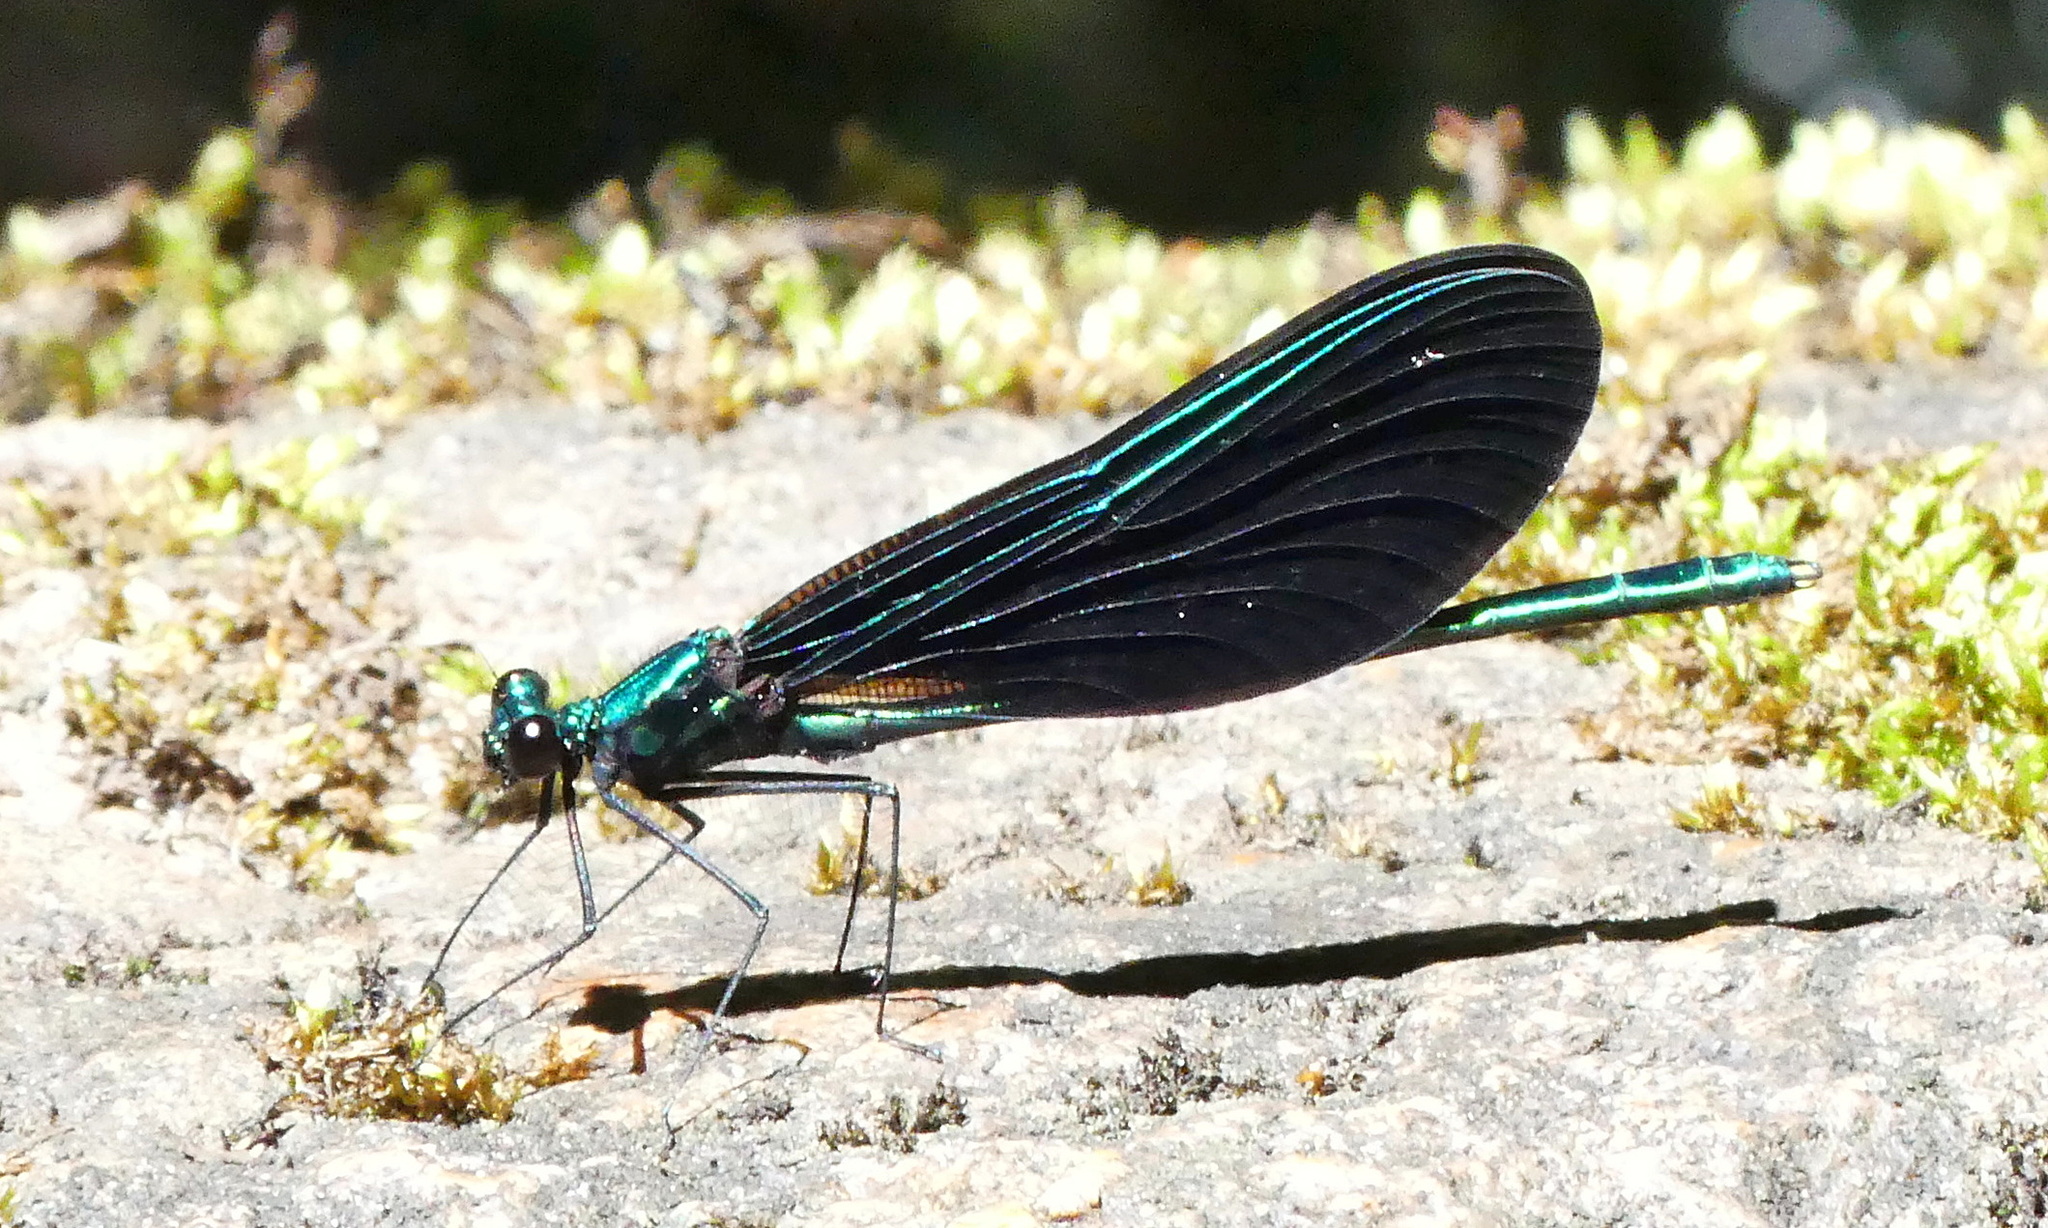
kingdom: Animalia
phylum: Arthropoda
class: Insecta
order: Odonata
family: Calopterygidae
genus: Calopteryx
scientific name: Calopteryx maculata
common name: Ebony jewelwing
